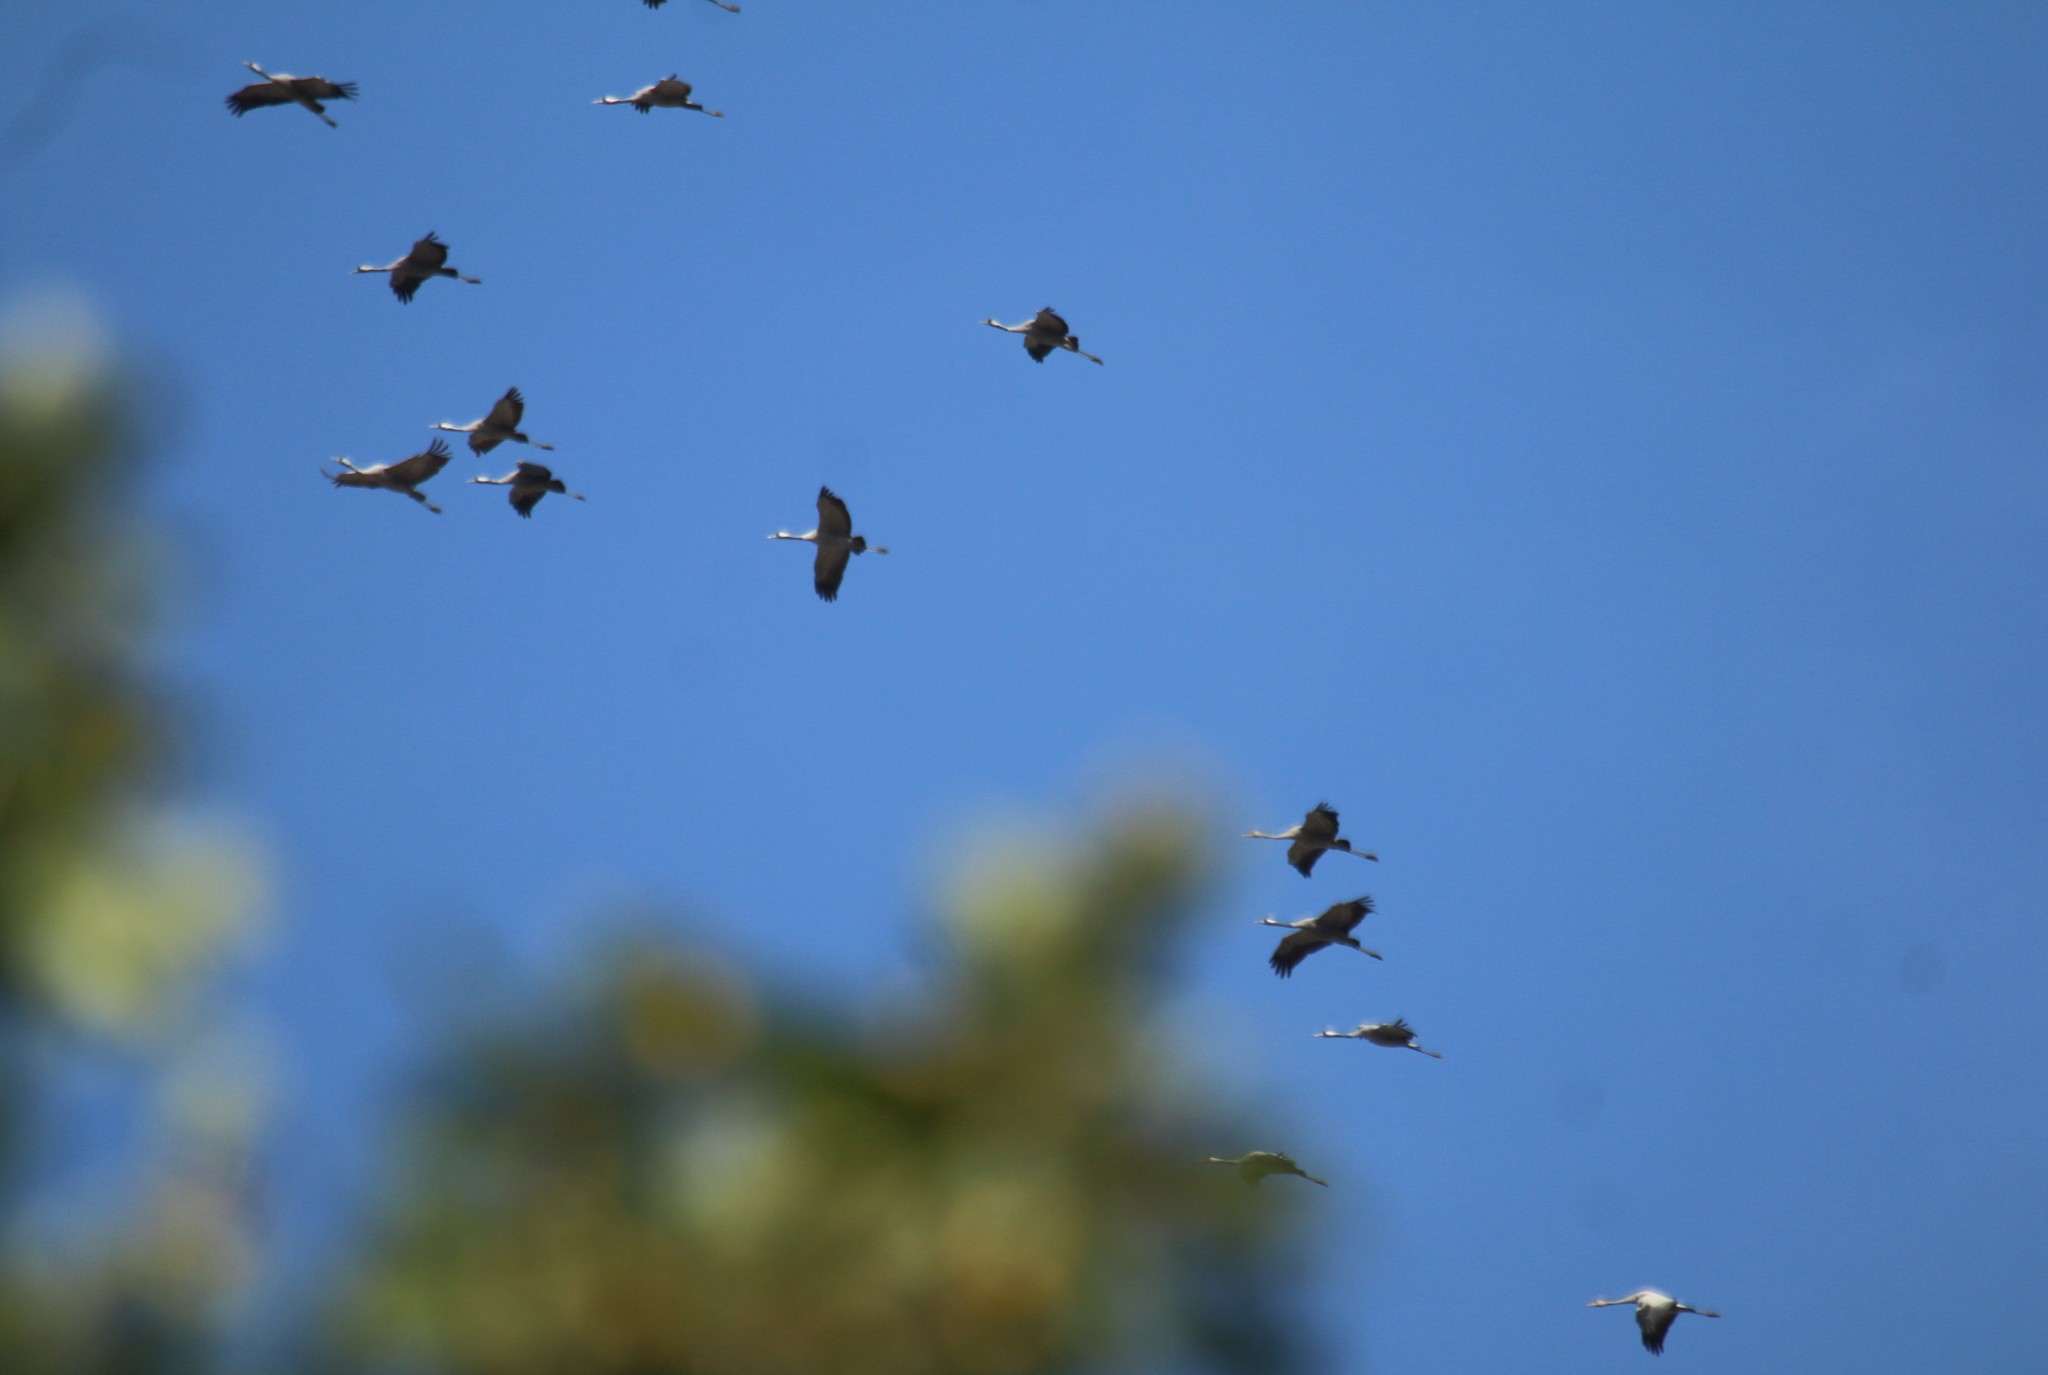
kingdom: Animalia
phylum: Chordata
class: Aves
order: Gruiformes
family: Gruidae
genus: Grus
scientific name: Grus grus
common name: Common crane
